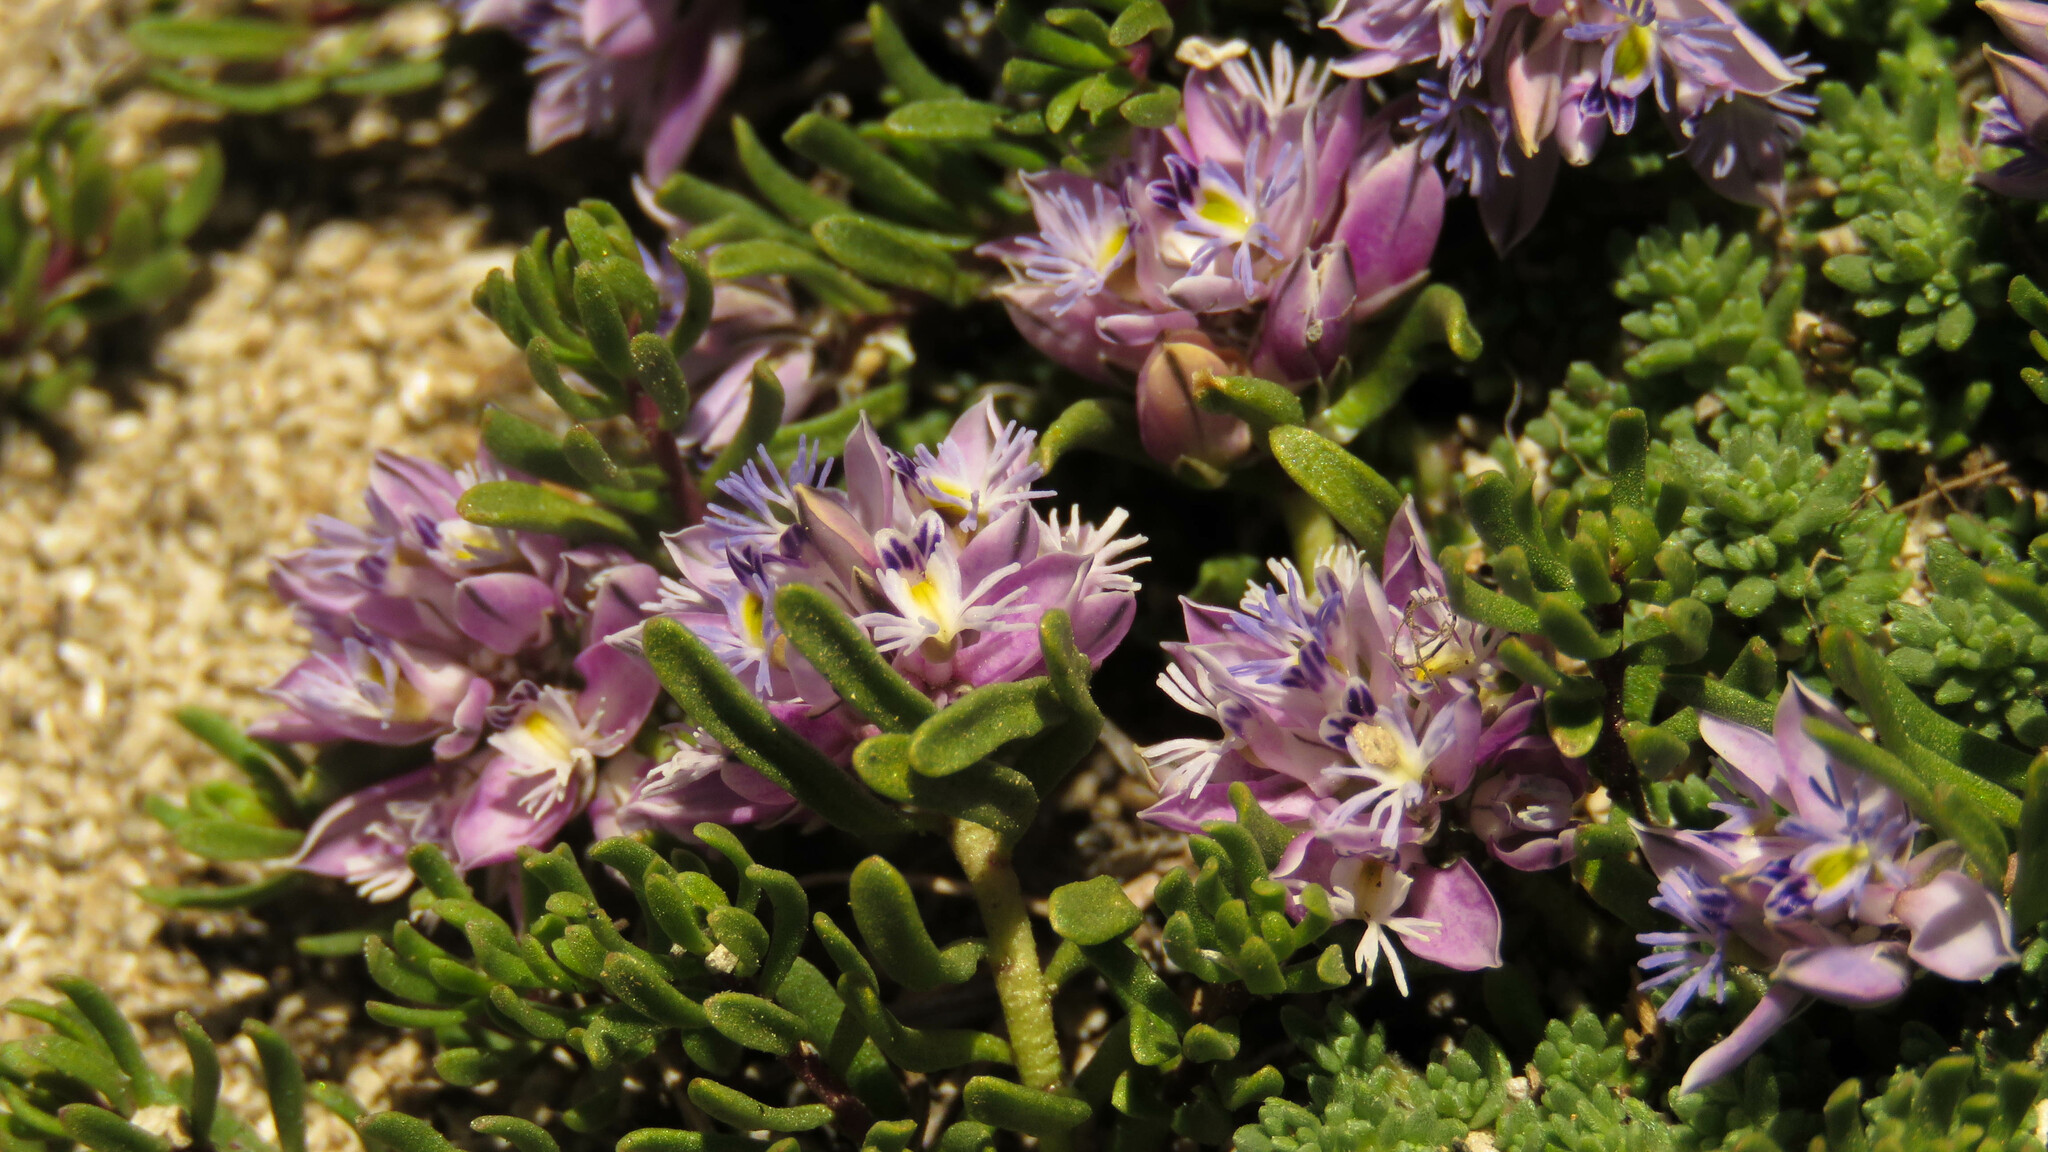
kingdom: Plantae
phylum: Tracheophyta
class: Magnoliopsida
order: Fabales
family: Polygalaceae
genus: Acanthocladus
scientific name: Acanthocladus tehuelchum
